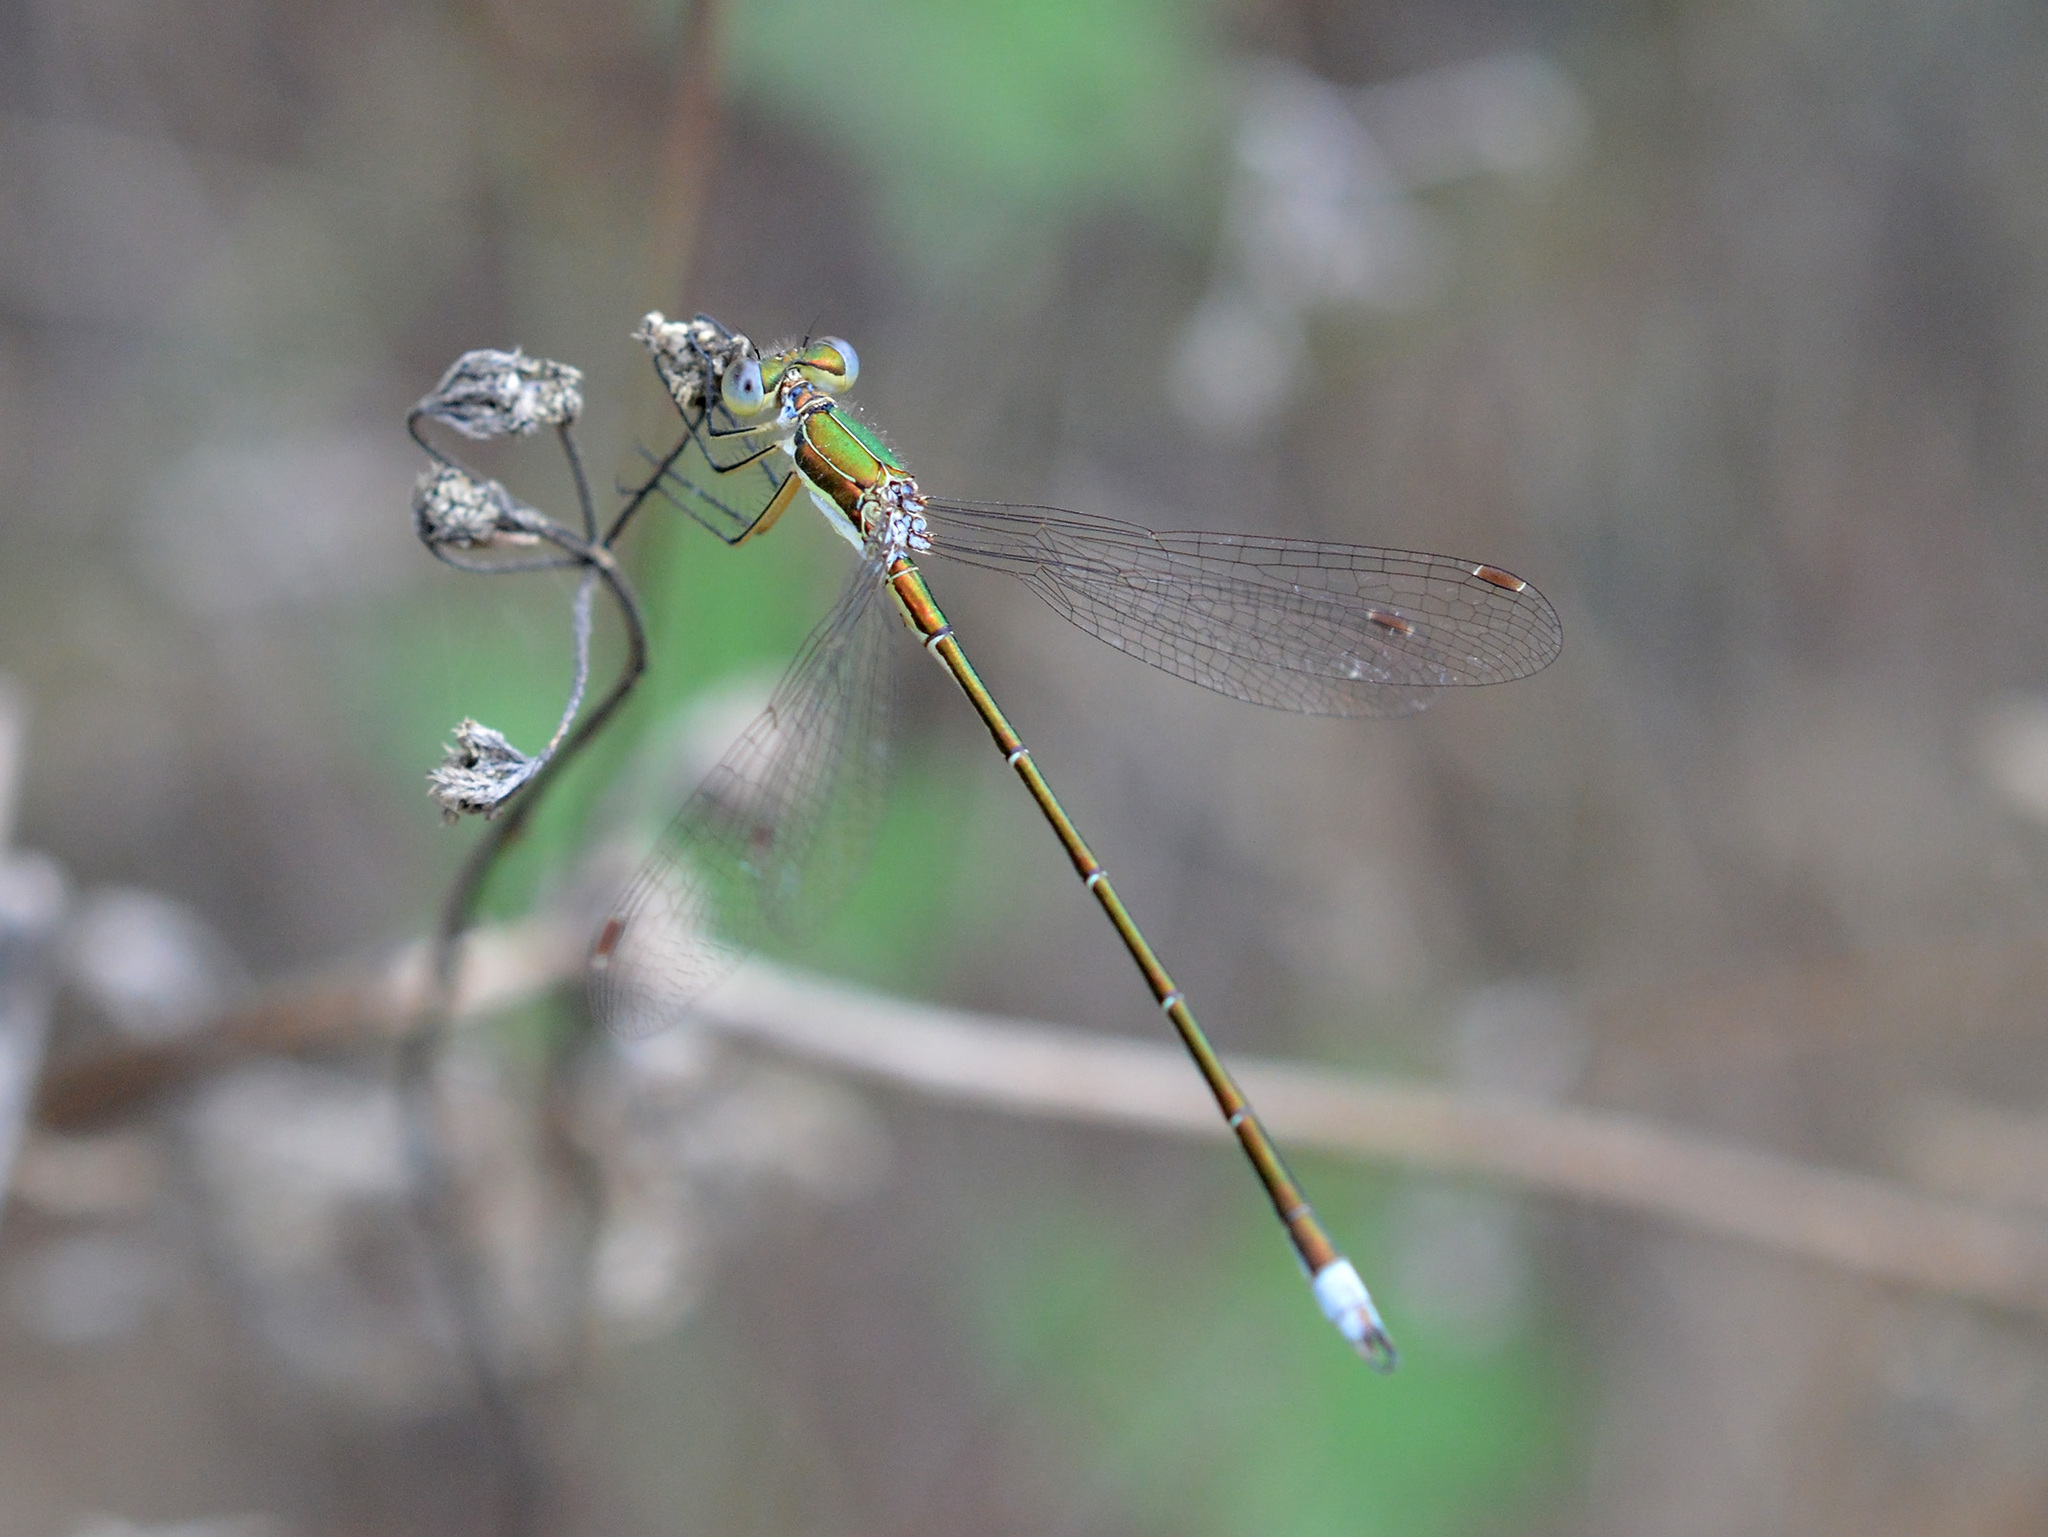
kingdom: Animalia
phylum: Arthropoda
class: Insecta
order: Odonata
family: Lestidae
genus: Lestes
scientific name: Lestes virens
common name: Small emerald spreadwing
